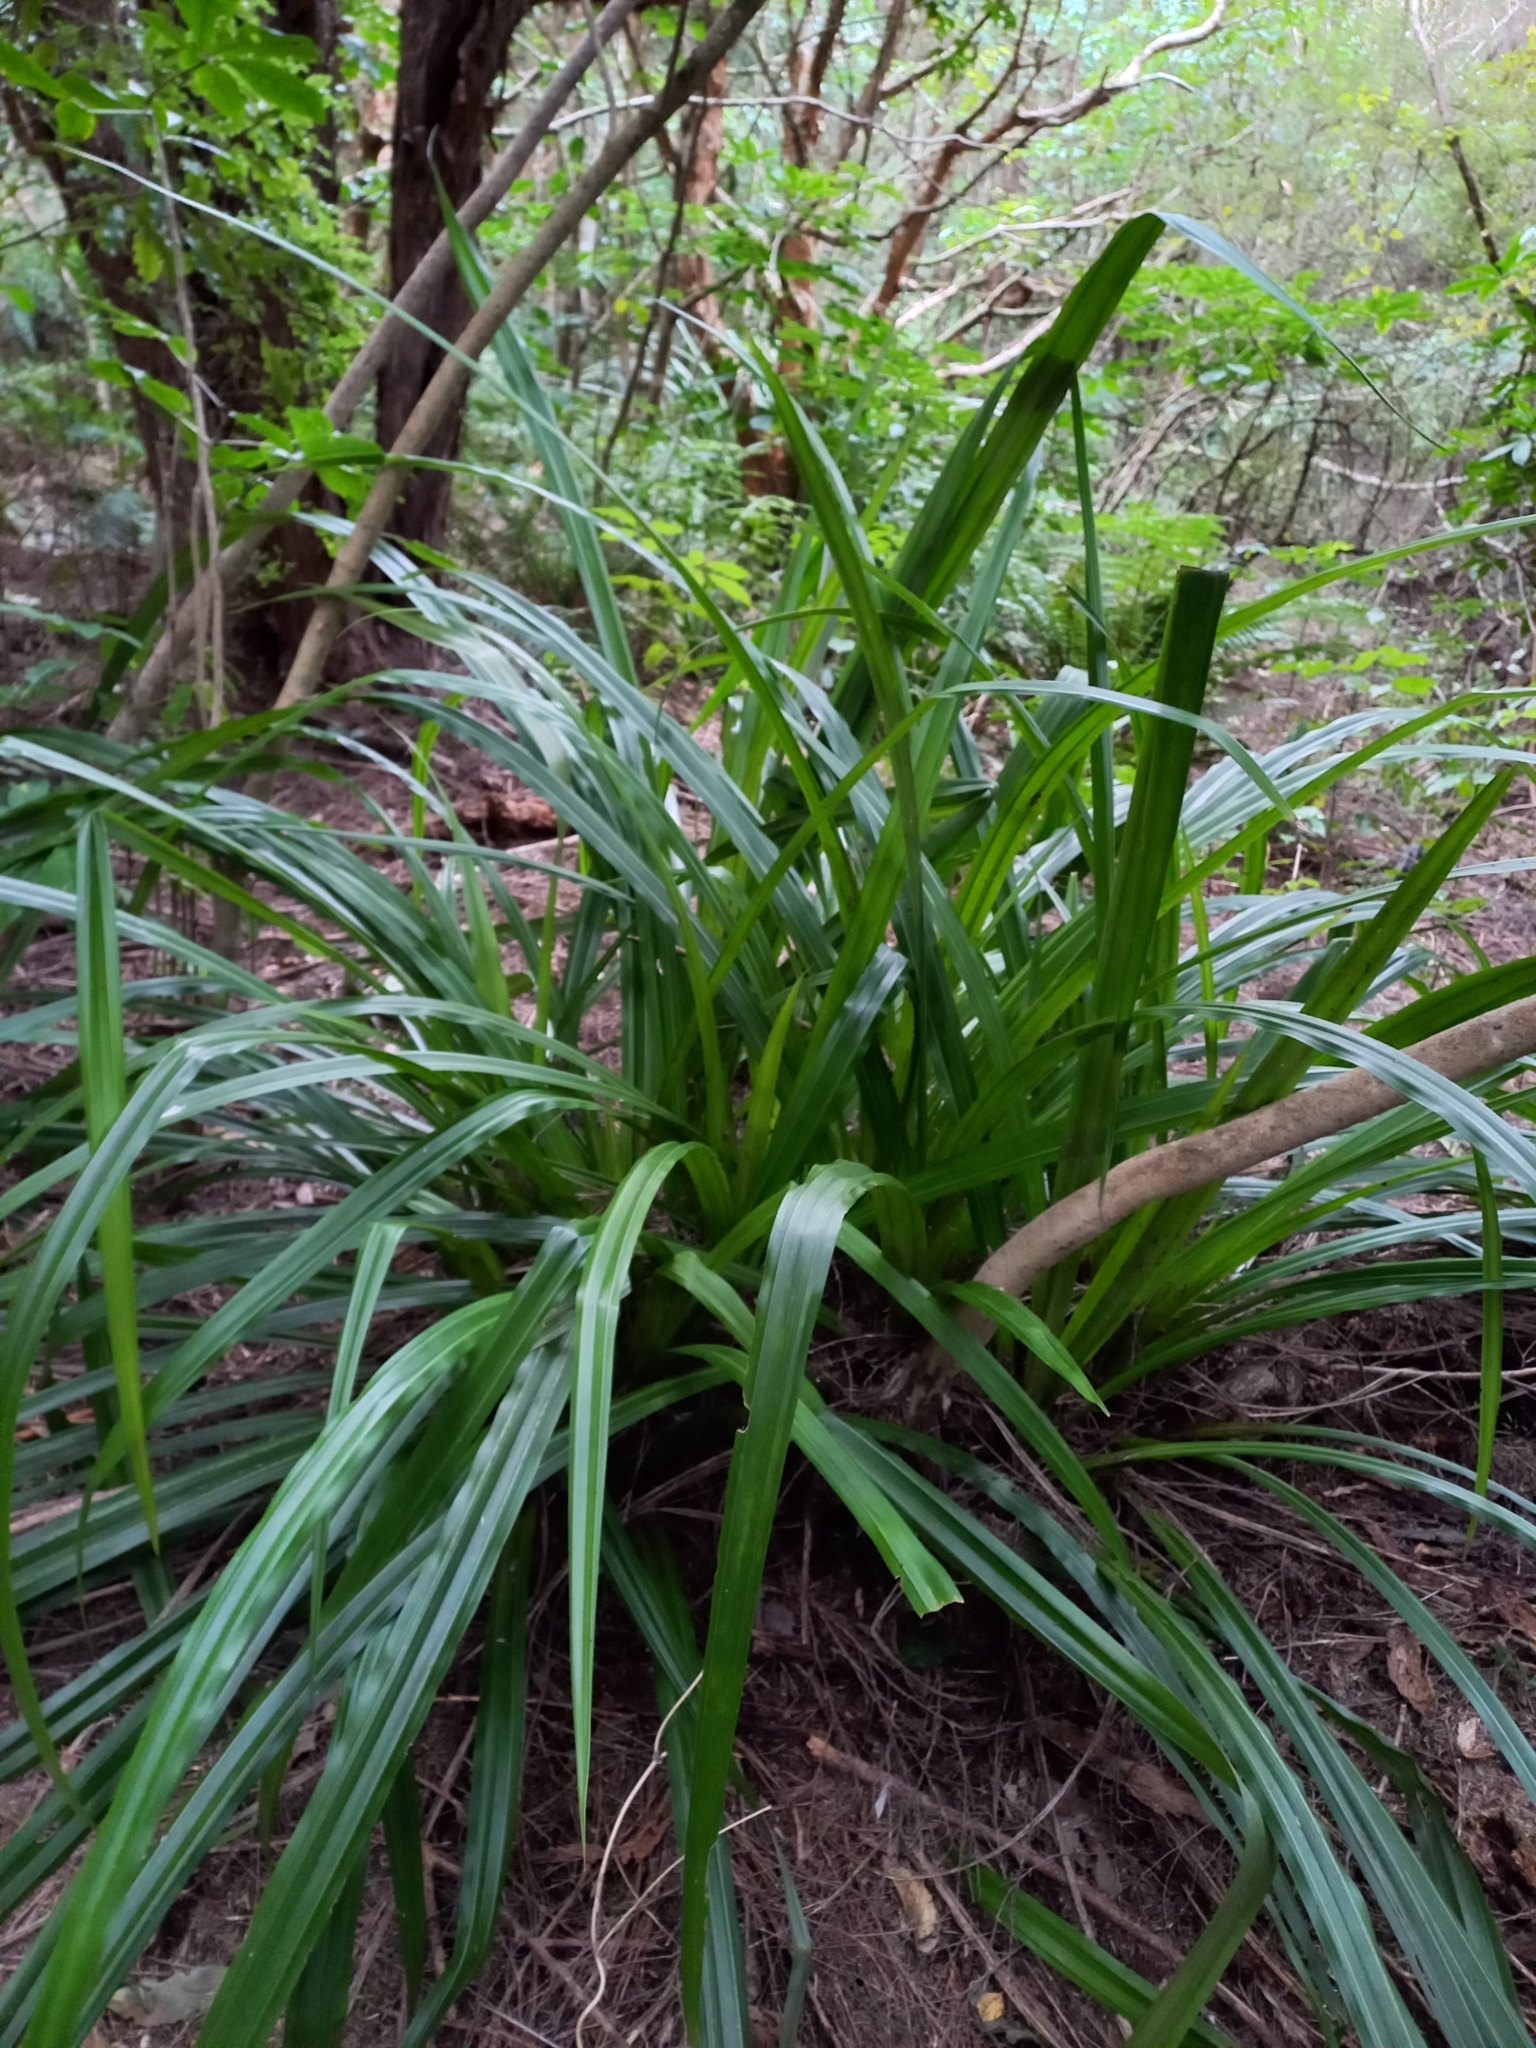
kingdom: Plantae
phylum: Tracheophyta
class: Liliopsida
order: Asparagales
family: Asteliaceae
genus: Astelia
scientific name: Astelia fragrans
